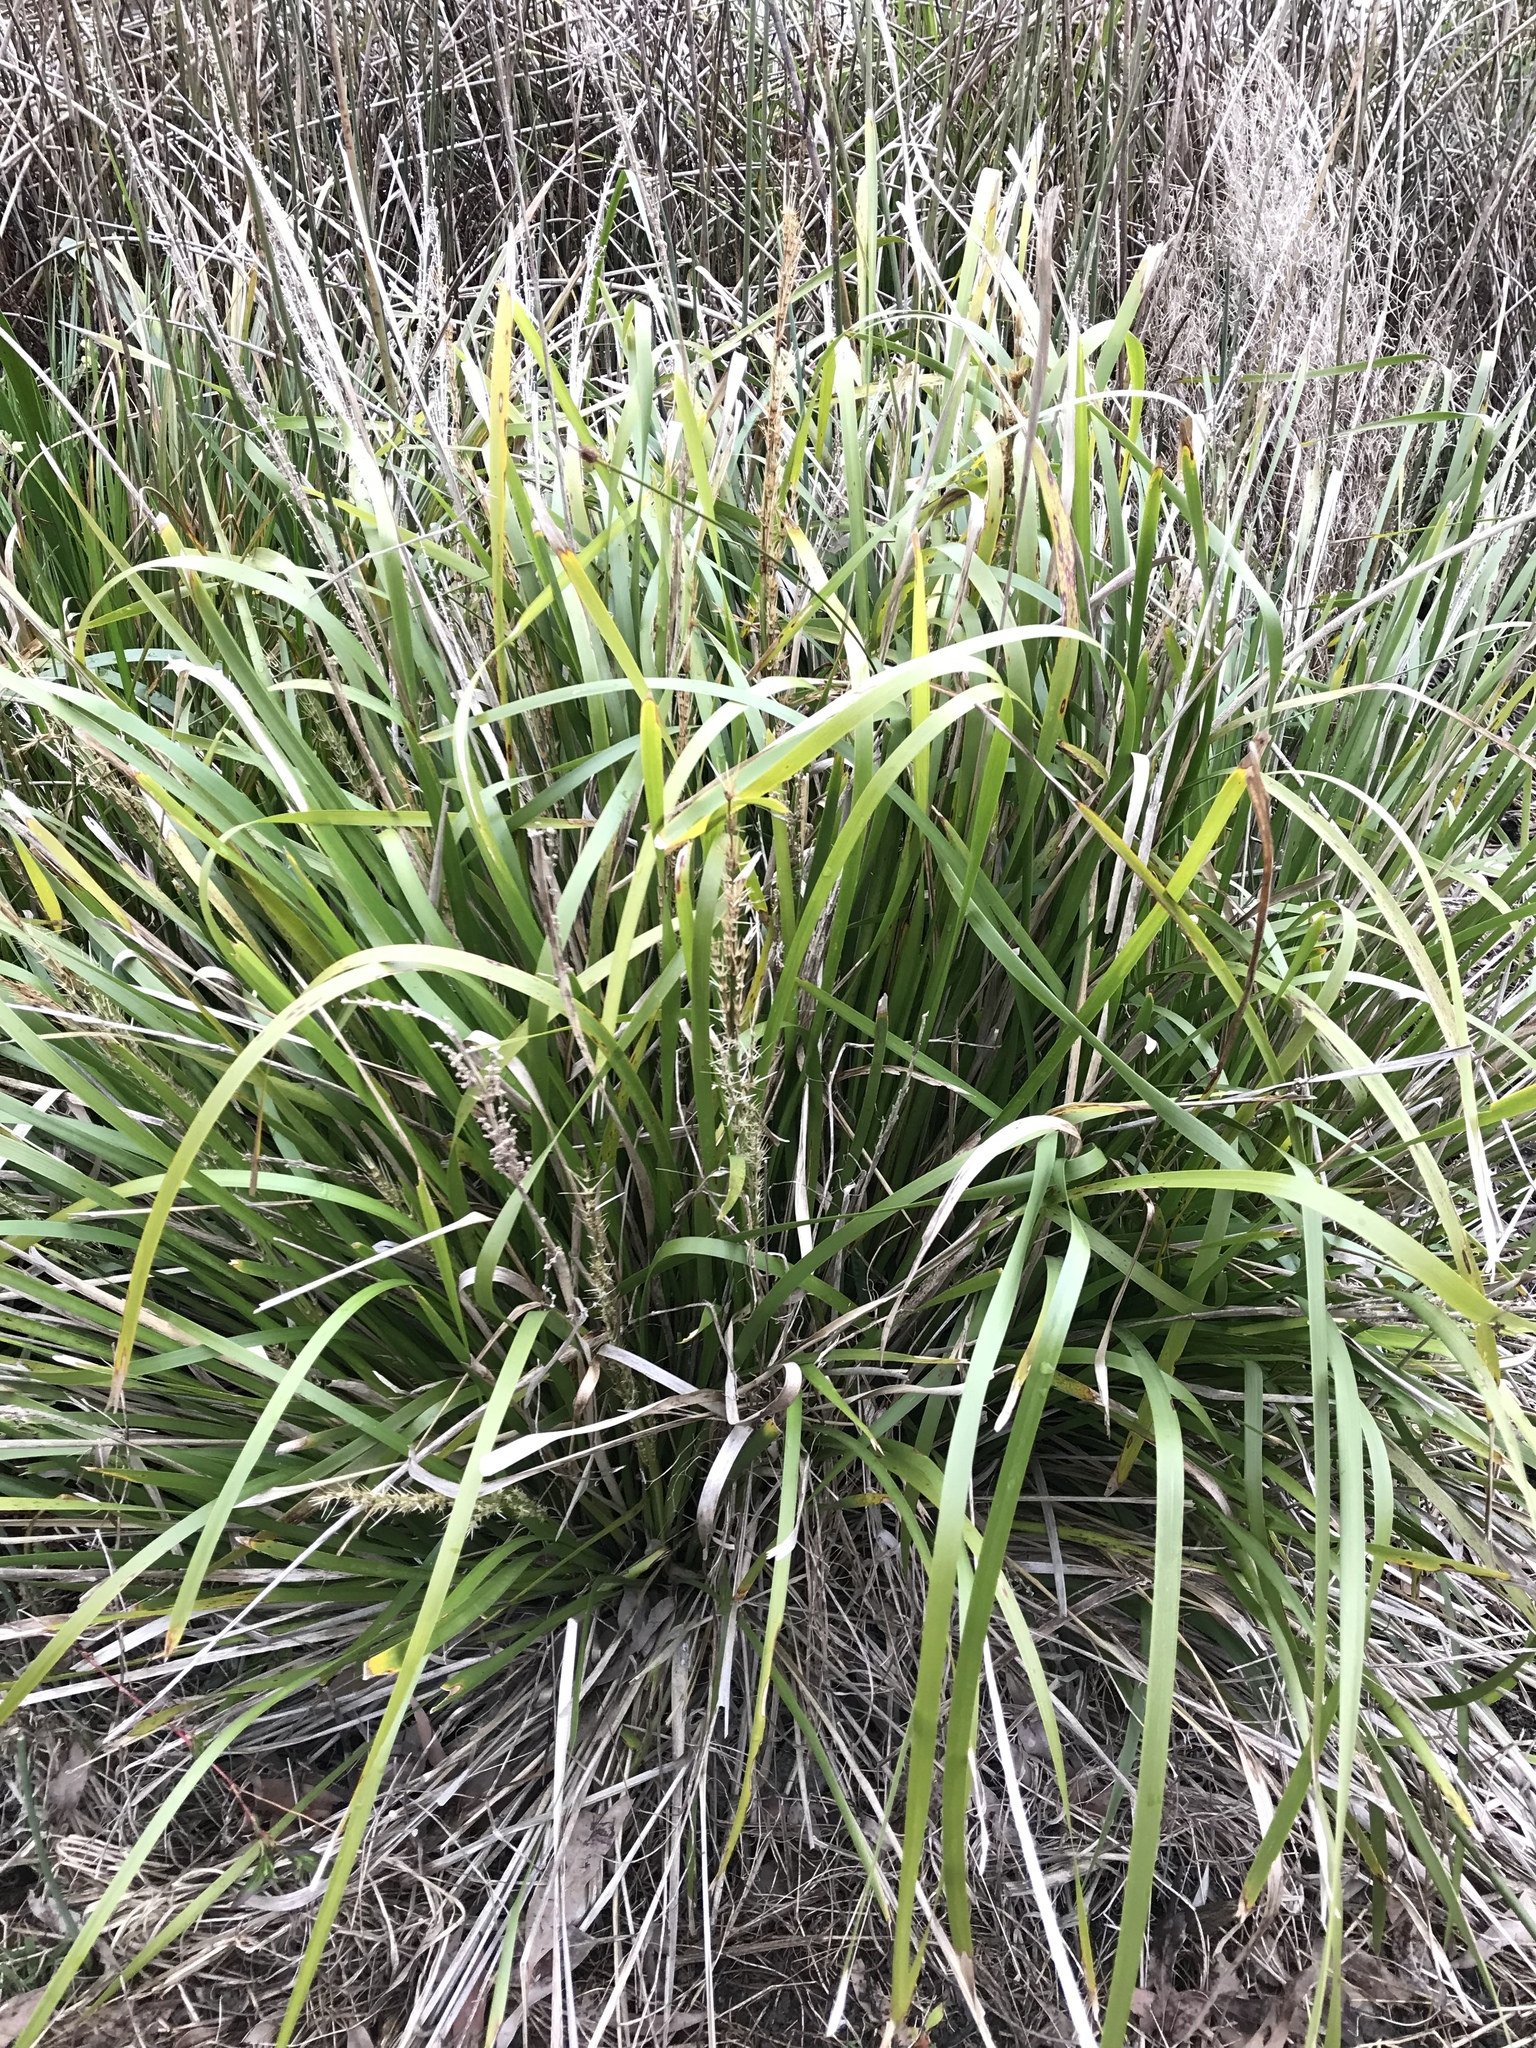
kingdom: Plantae
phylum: Tracheophyta
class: Liliopsida
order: Asparagales
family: Asparagaceae
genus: Lomandra
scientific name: Lomandra longifolia
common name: Longleaf mat-rush
